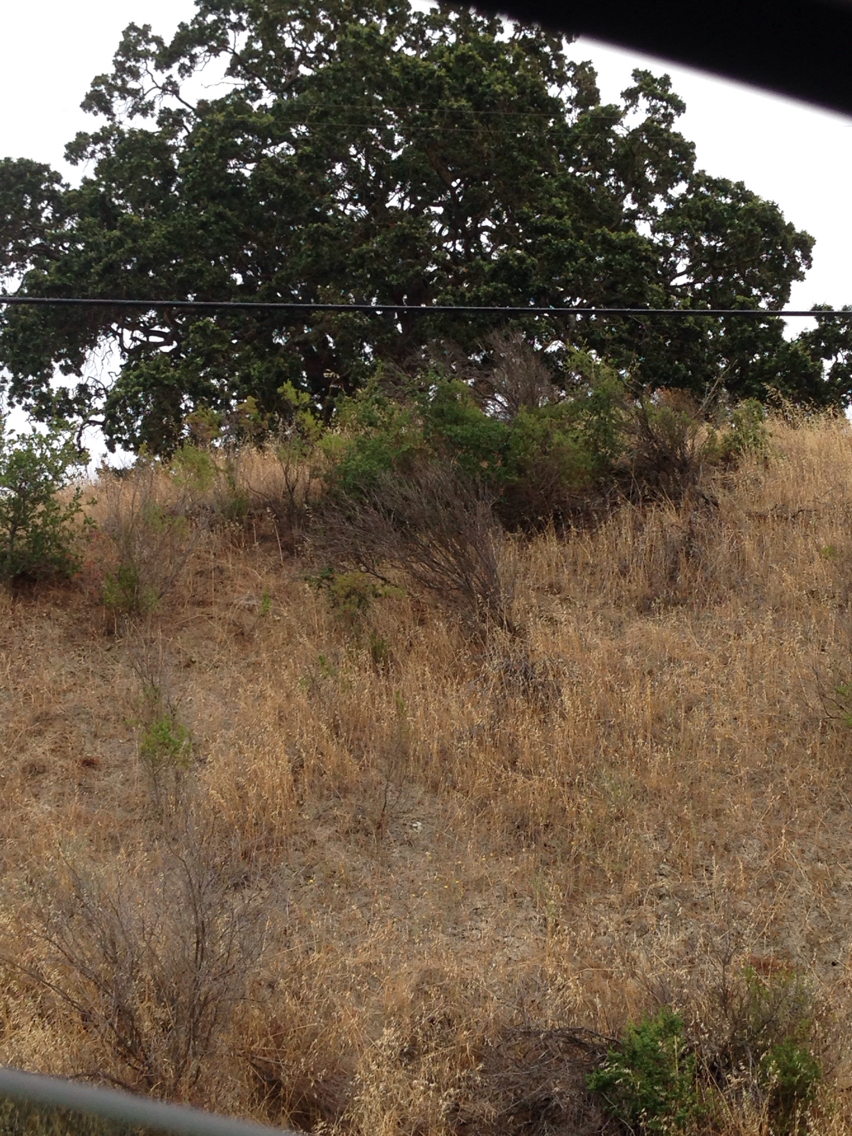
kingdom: Plantae
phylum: Tracheophyta
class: Magnoliopsida
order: Fagales
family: Fagaceae
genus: Quercus
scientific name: Quercus lobata
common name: Valley oak
